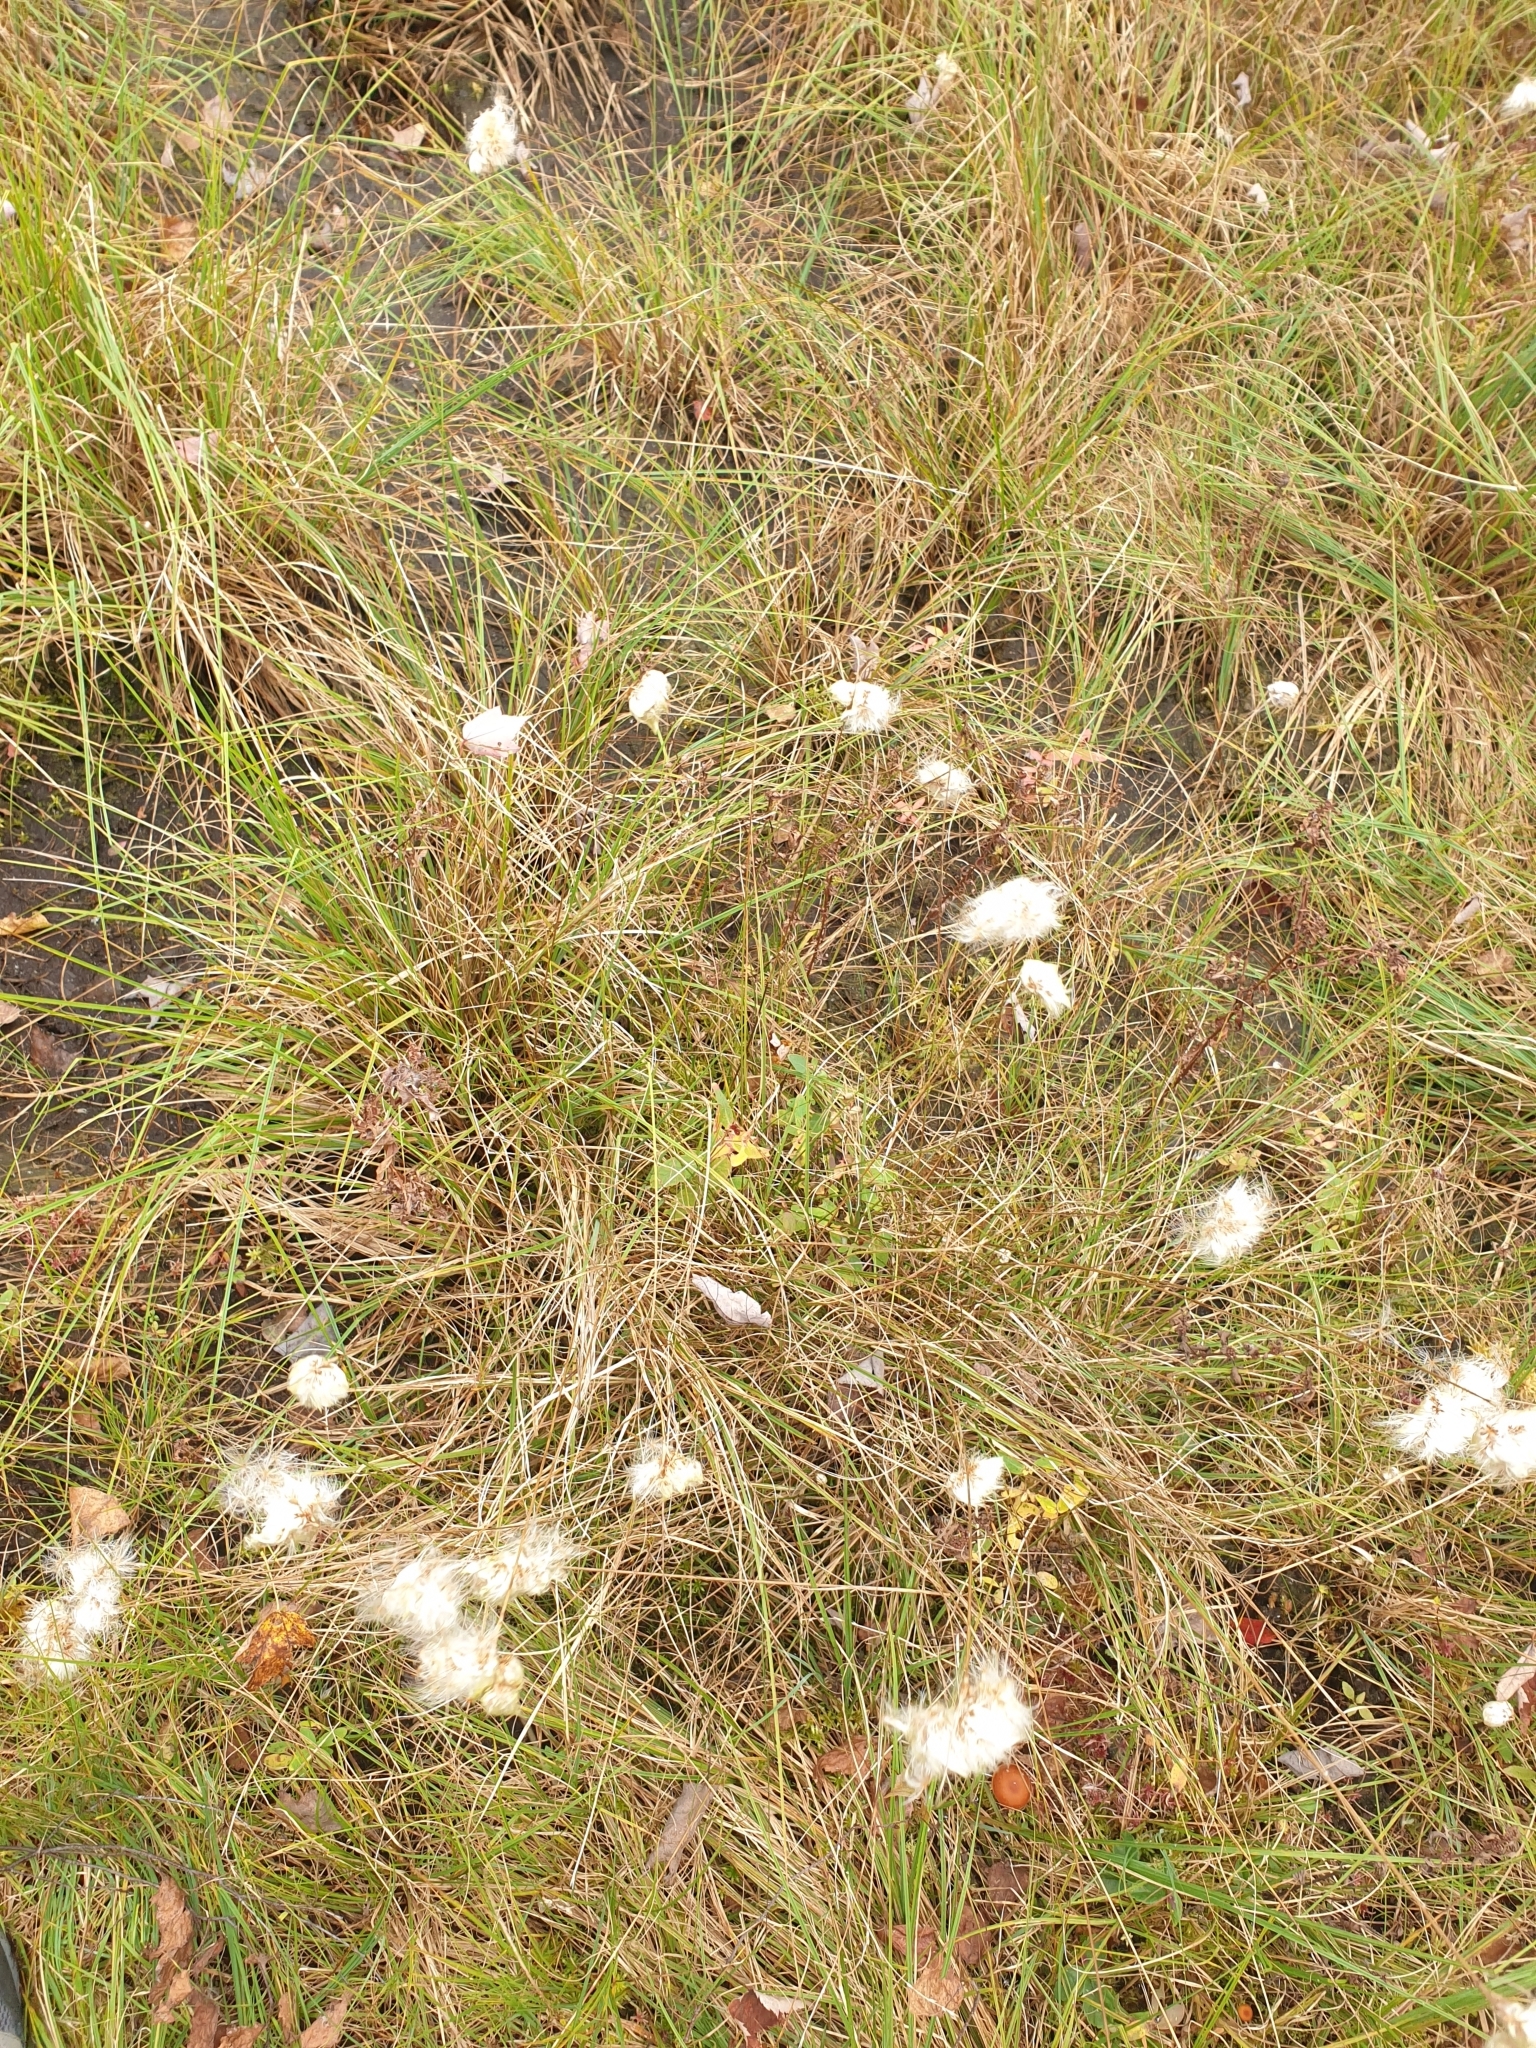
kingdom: Plantae
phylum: Tracheophyta
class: Liliopsida
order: Poales
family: Cyperaceae
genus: Eriophorum
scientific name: Eriophorum virginicum
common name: Tawny cottongrass
